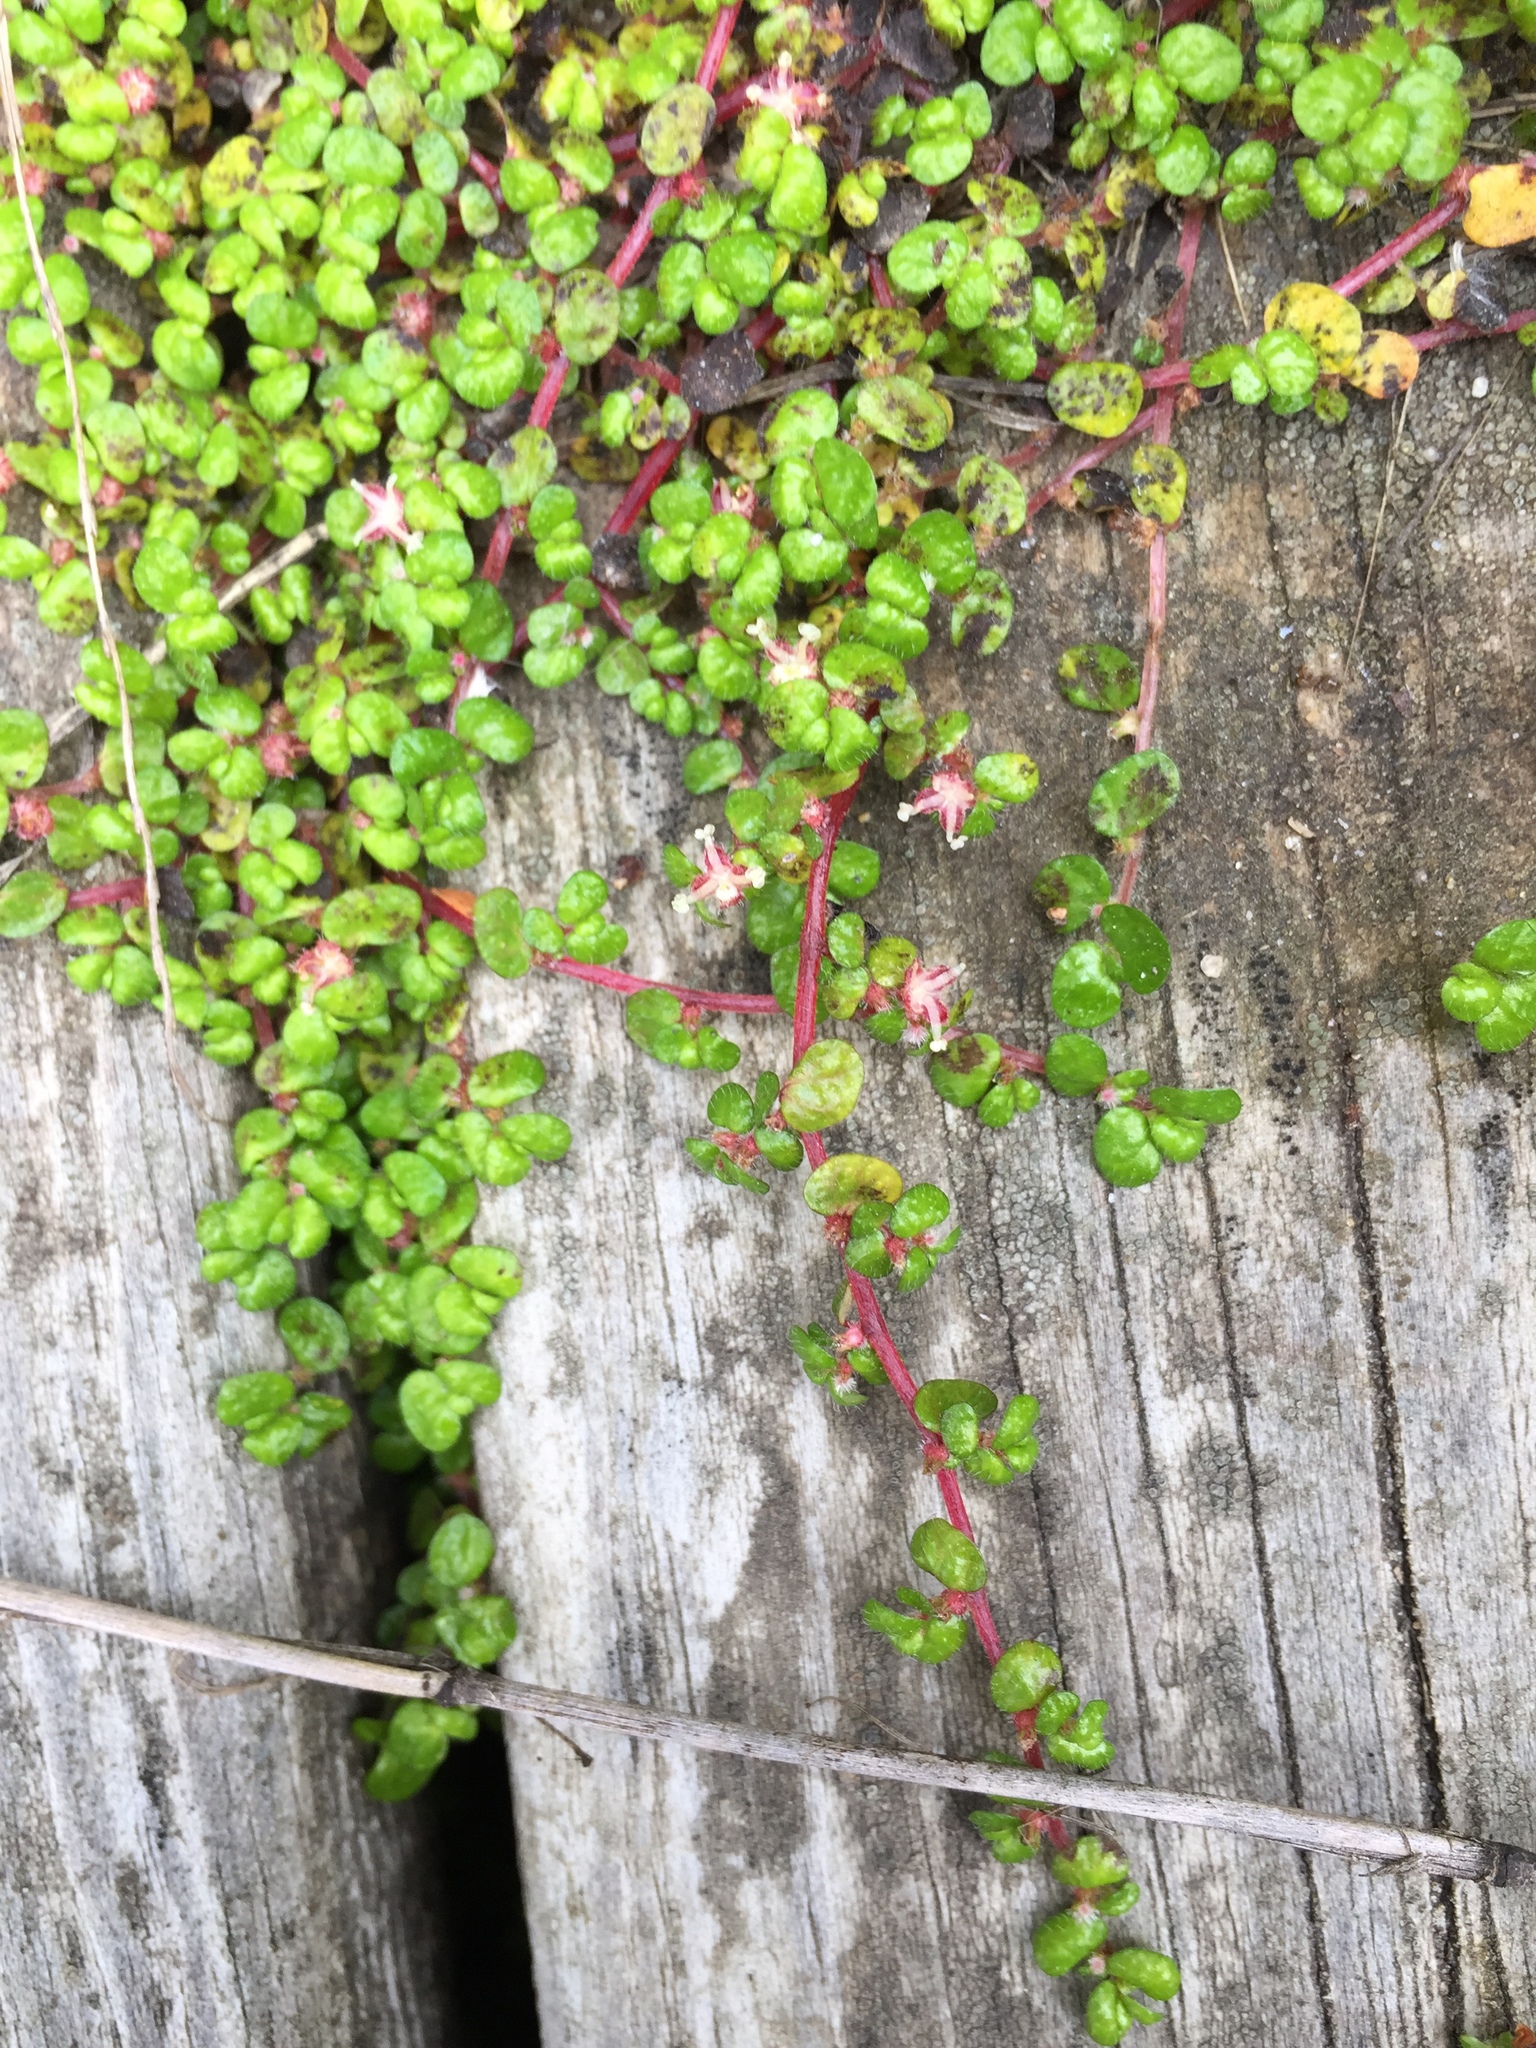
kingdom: Plantae
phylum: Tracheophyta
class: Magnoliopsida
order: Rosales
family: Urticaceae
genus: Soleirolia
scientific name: Soleirolia soleirolii
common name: Mind-your-own-business
